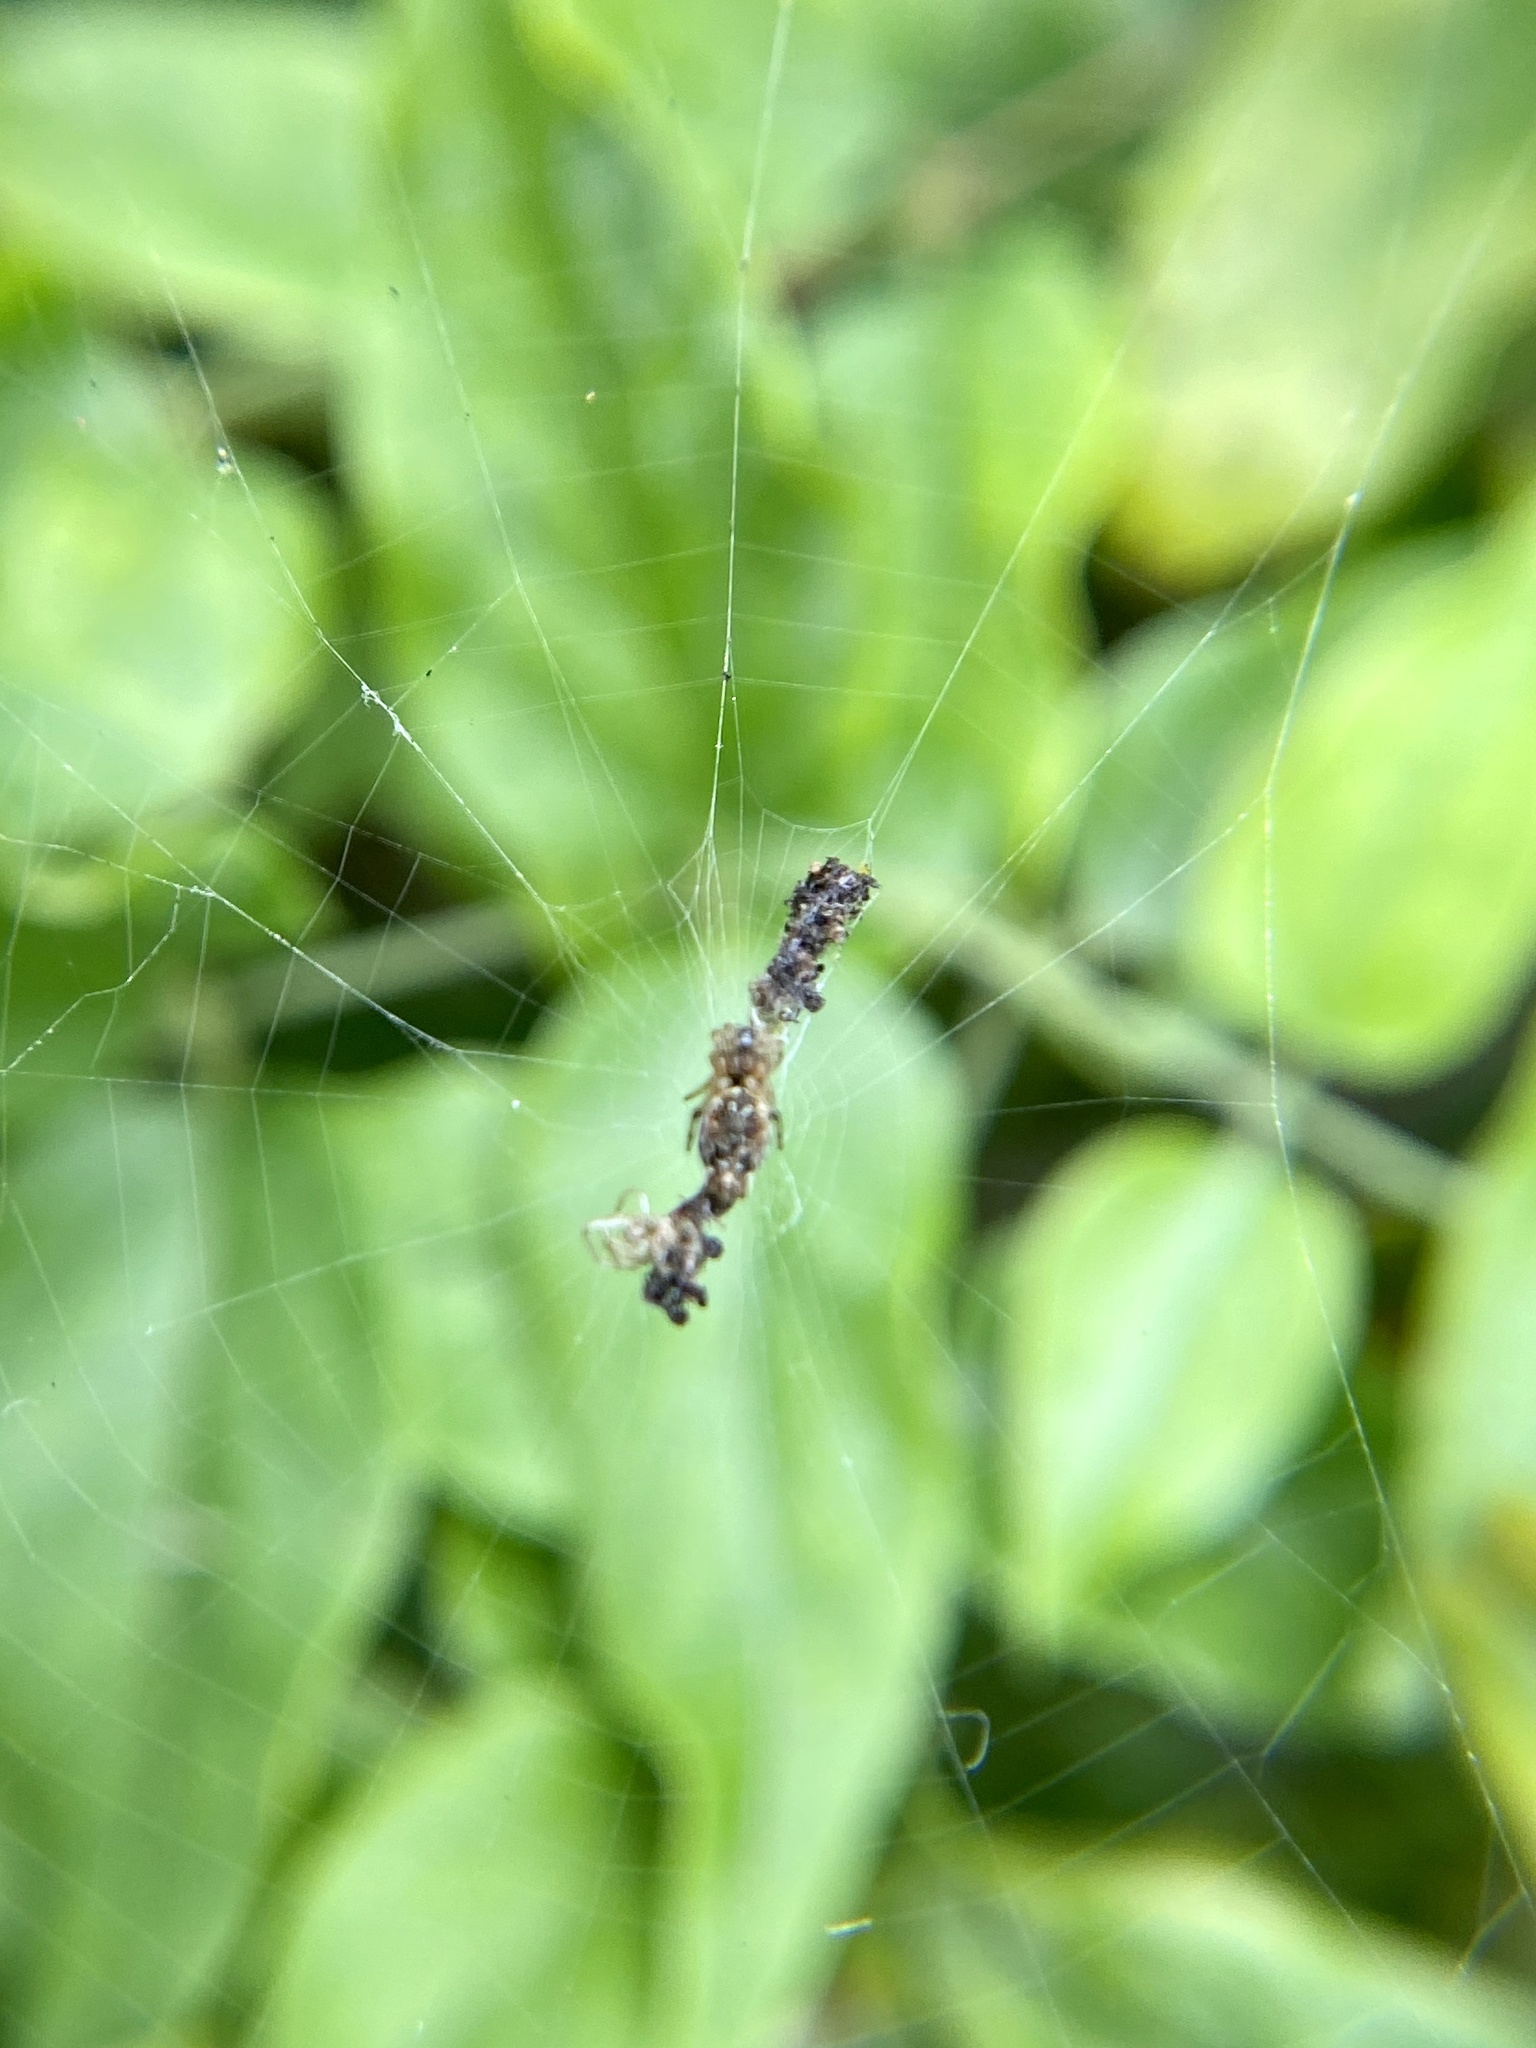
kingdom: Animalia
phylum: Arthropoda
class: Arachnida
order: Araneae
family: Araneidae
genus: Cyclosa
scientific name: Cyclosa walckenaeri
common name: Orb weavers
